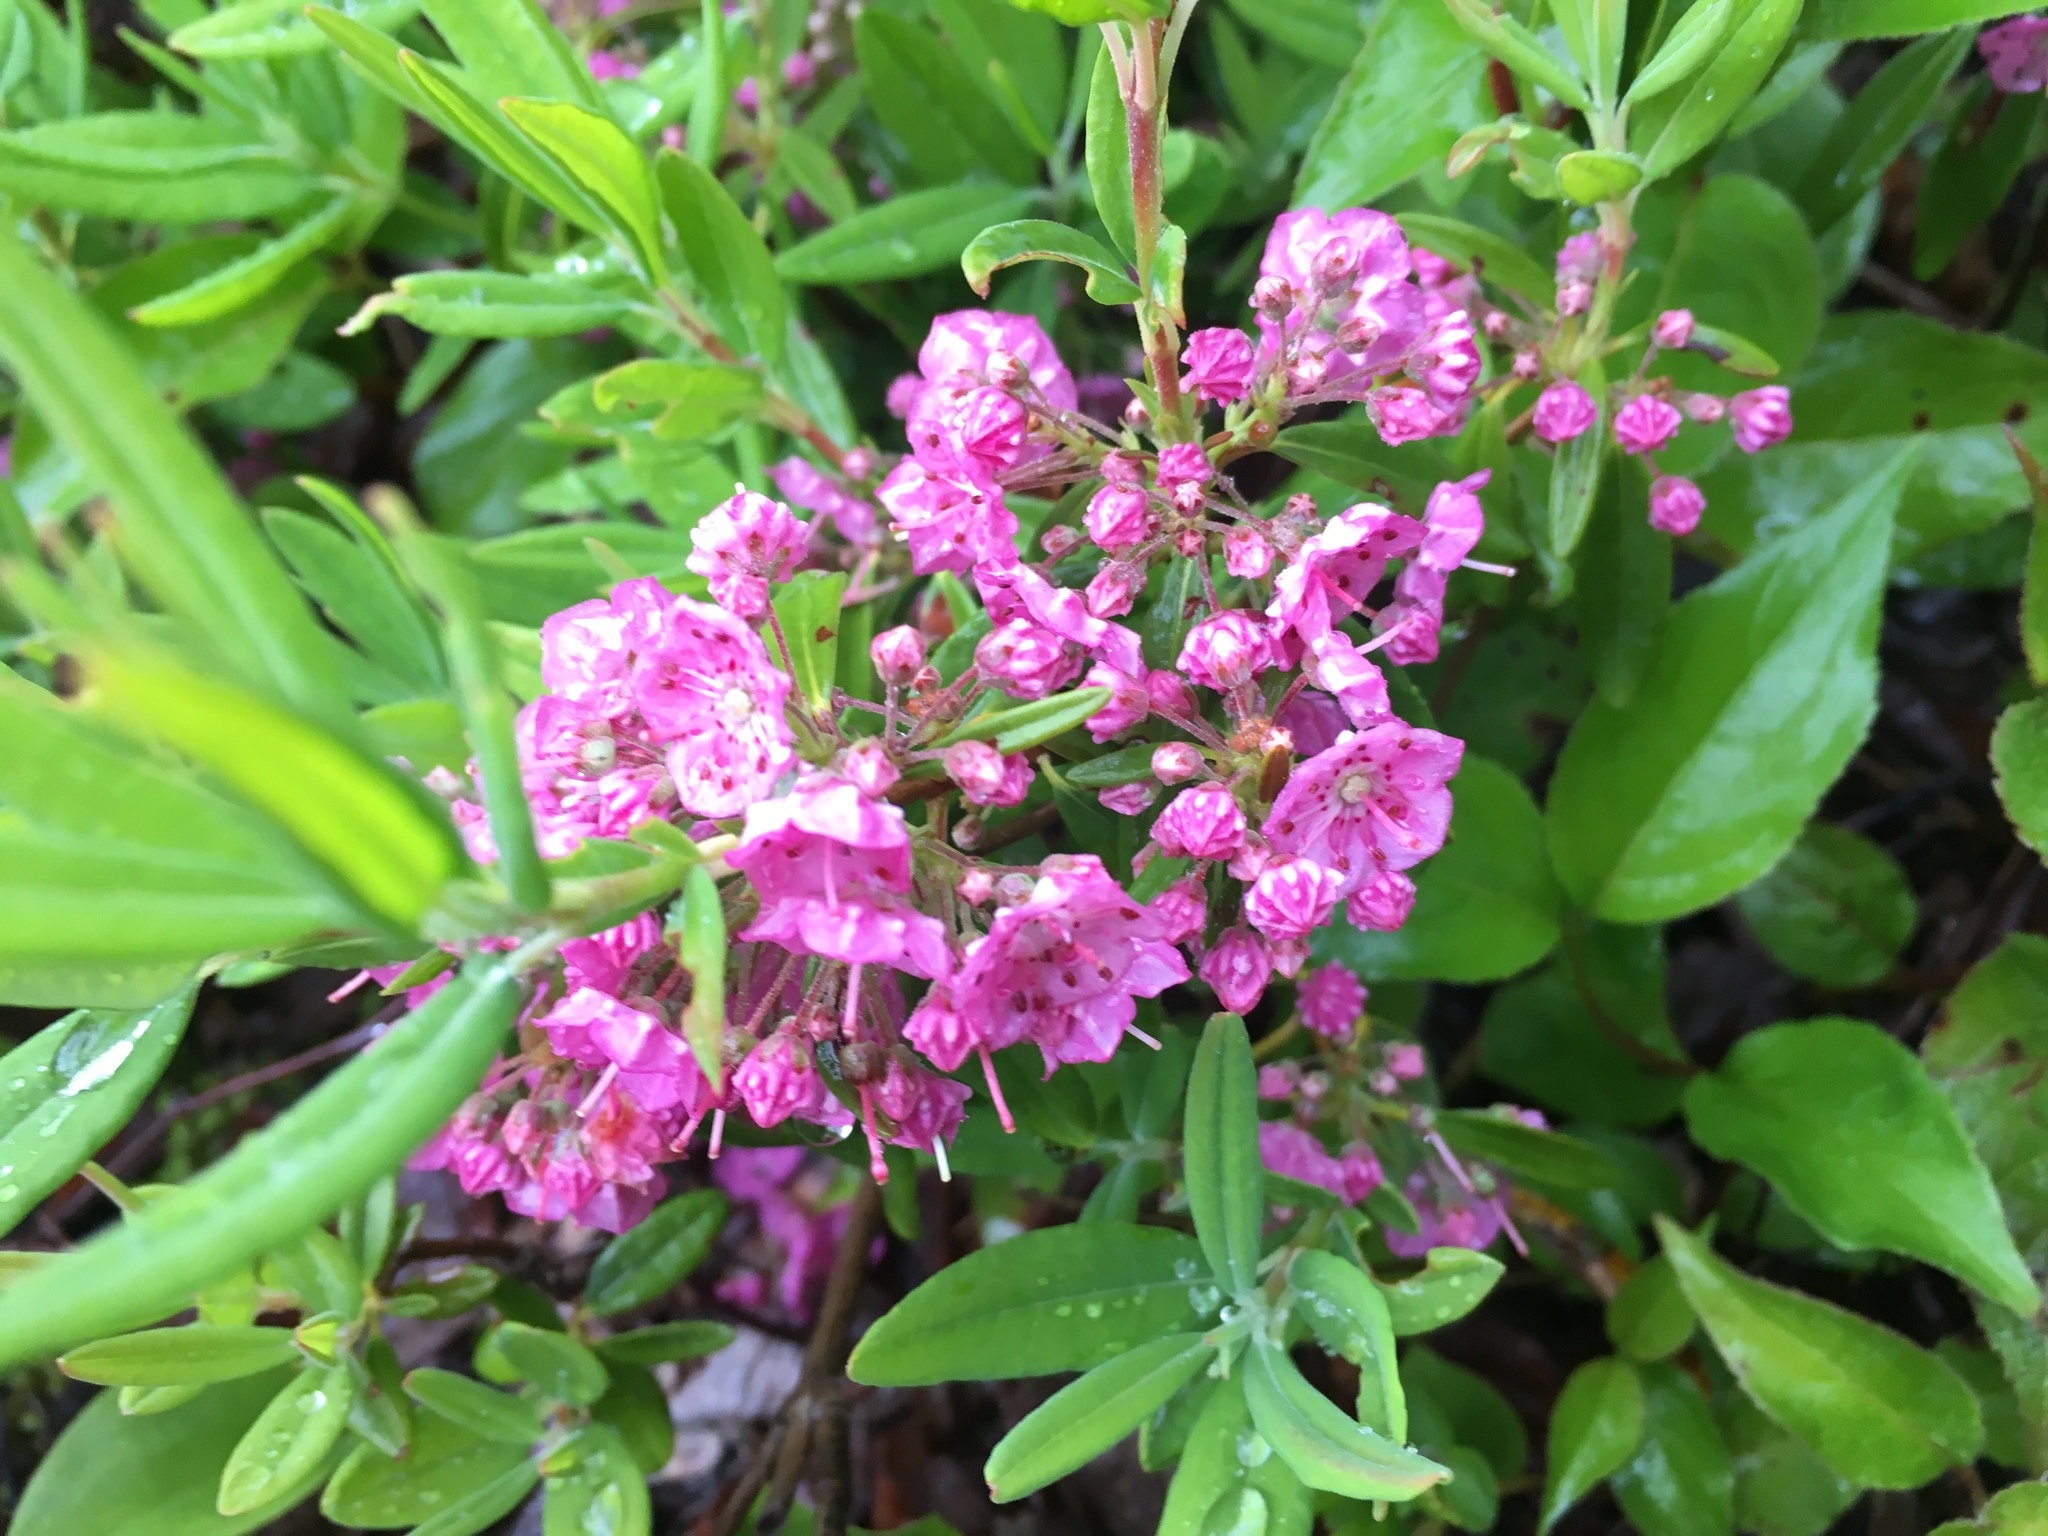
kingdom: Plantae
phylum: Tracheophyta
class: Magnoliopsida
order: Ericales
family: Ericaceae
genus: Kalmia
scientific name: Kalmia angustifolia
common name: Sheep-laurel
